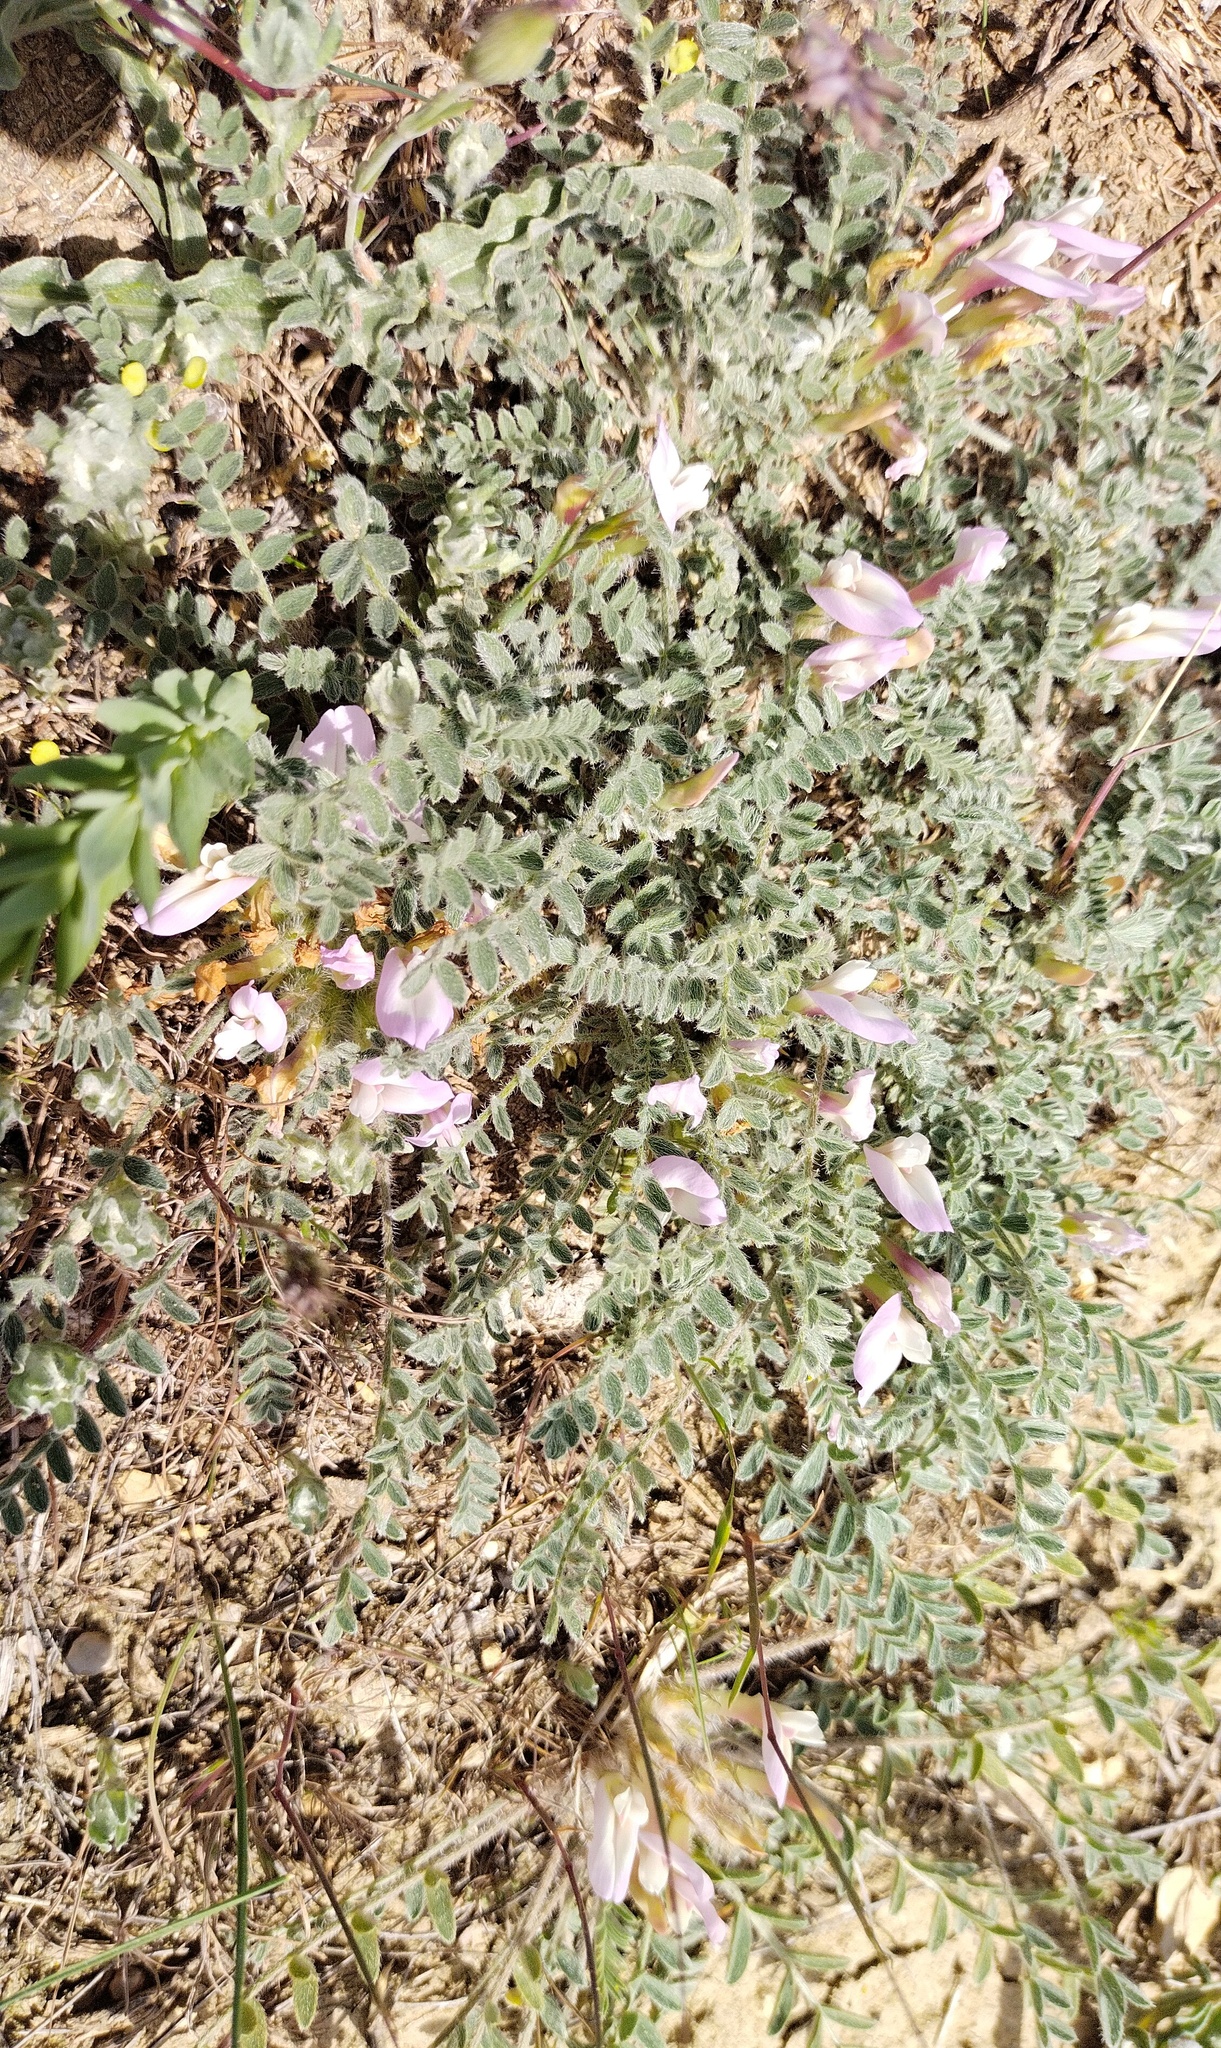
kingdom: Plantae
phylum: Tracheophyta
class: Magnoliopsida
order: Fabales
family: Fabaceae
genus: Astragalus
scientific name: Astragalus dolichophyllus
